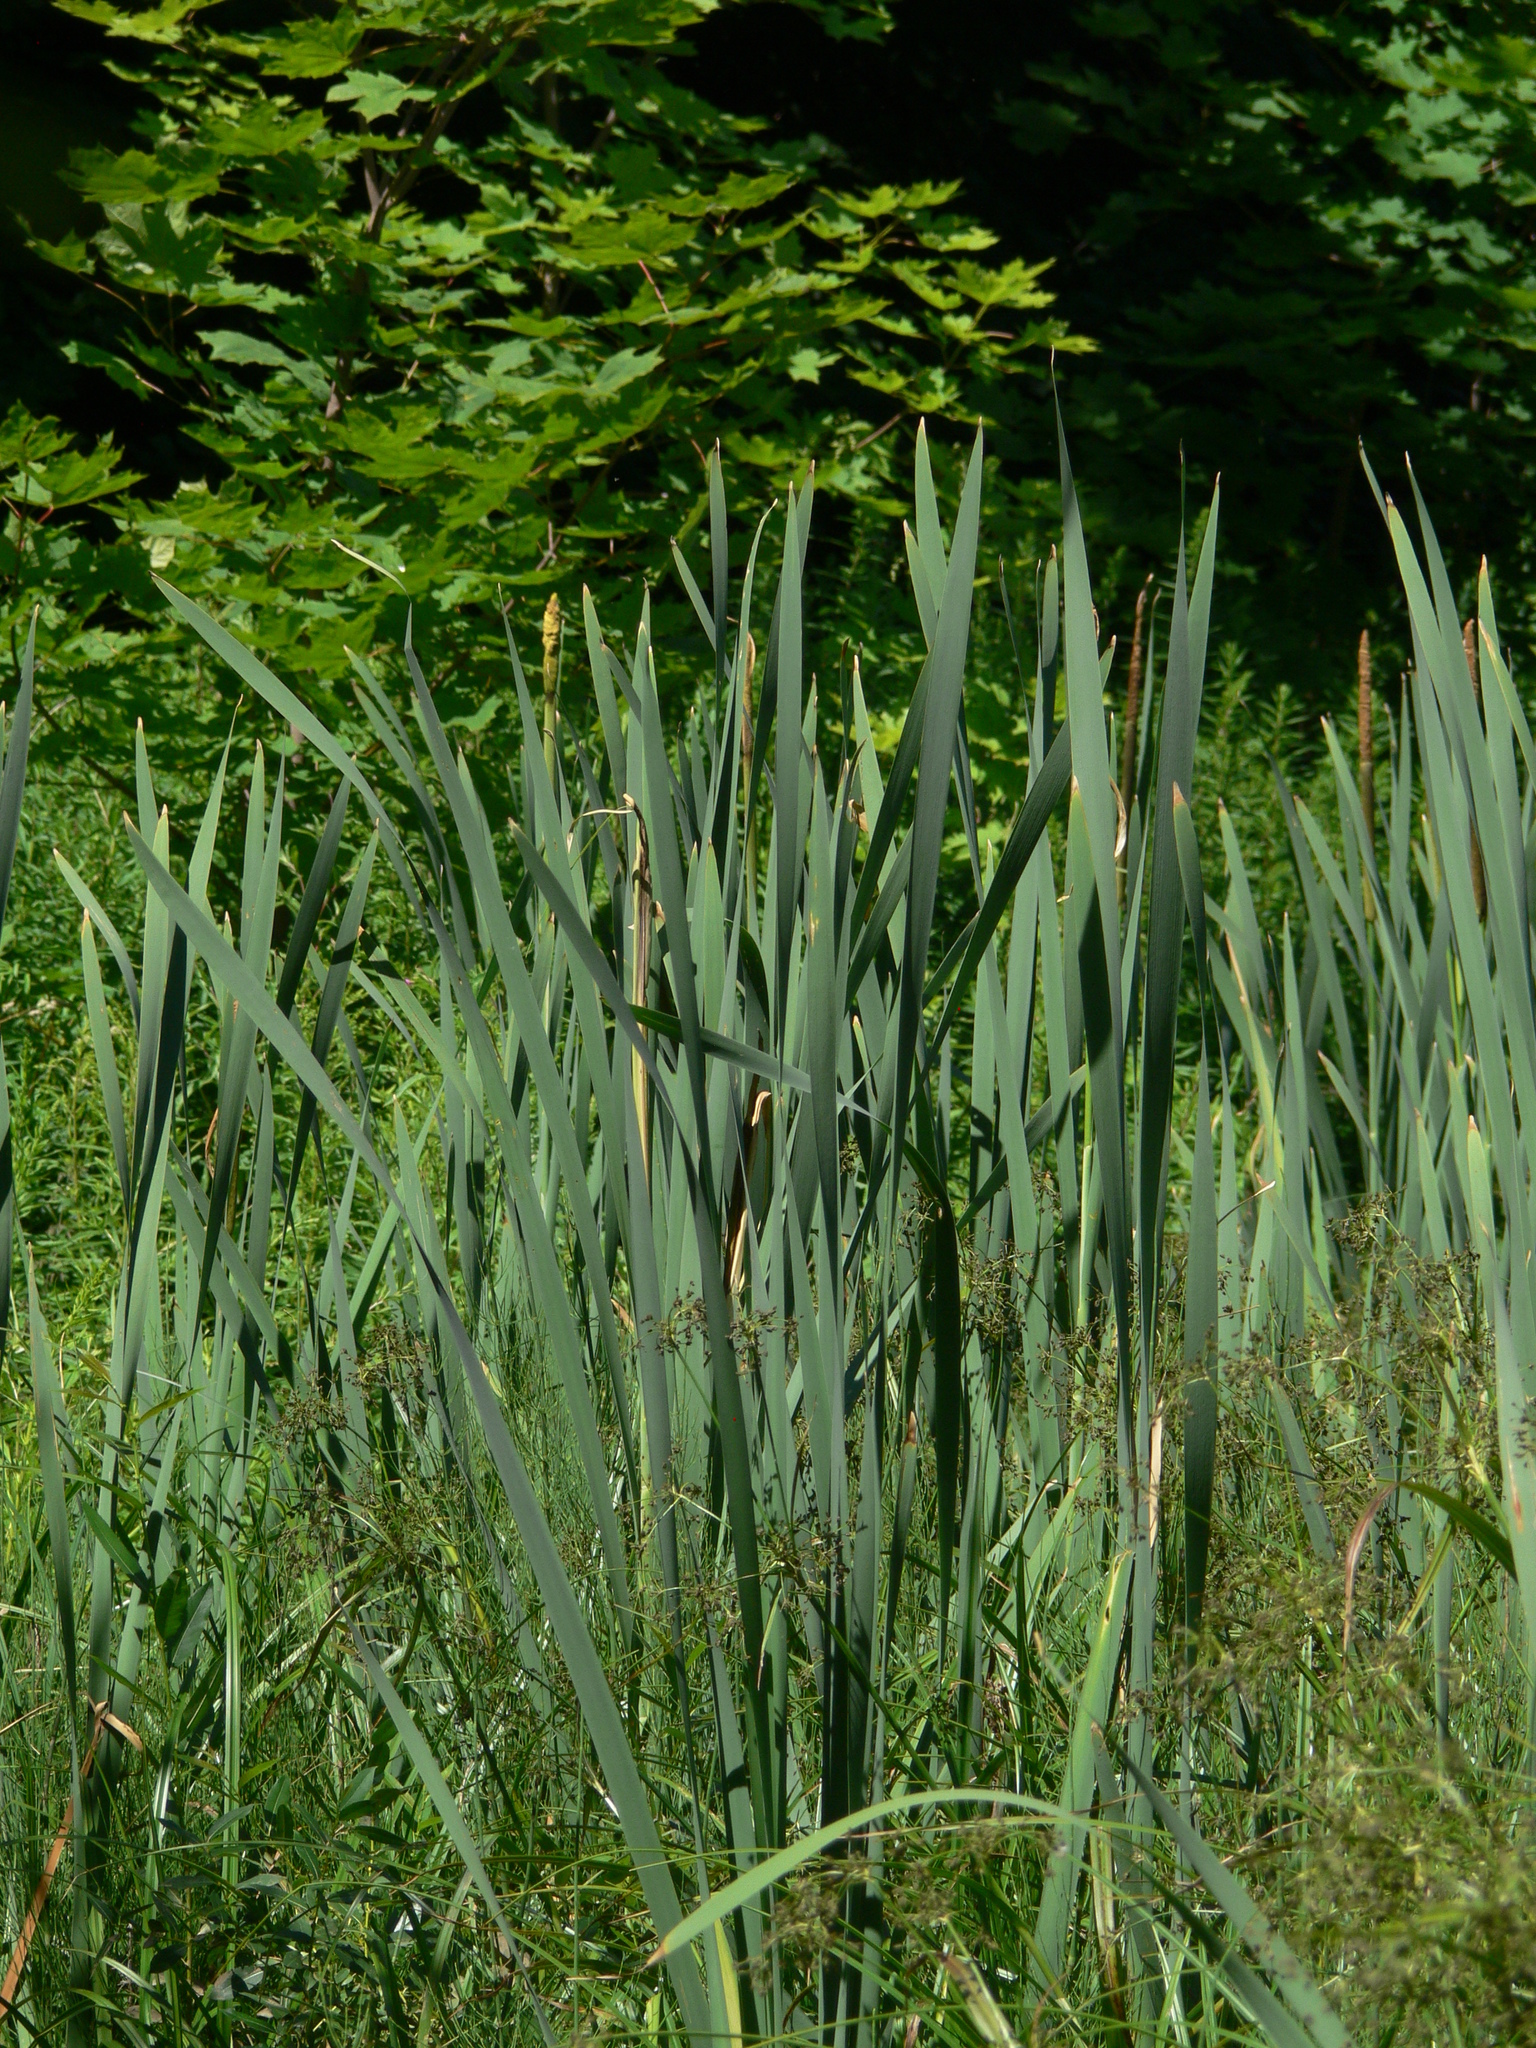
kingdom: Plantae
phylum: Tracheophyta
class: Liliopsida
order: Poales
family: Typhaceae
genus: Typha
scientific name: Typha latifolia
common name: Broadleaf cattail
